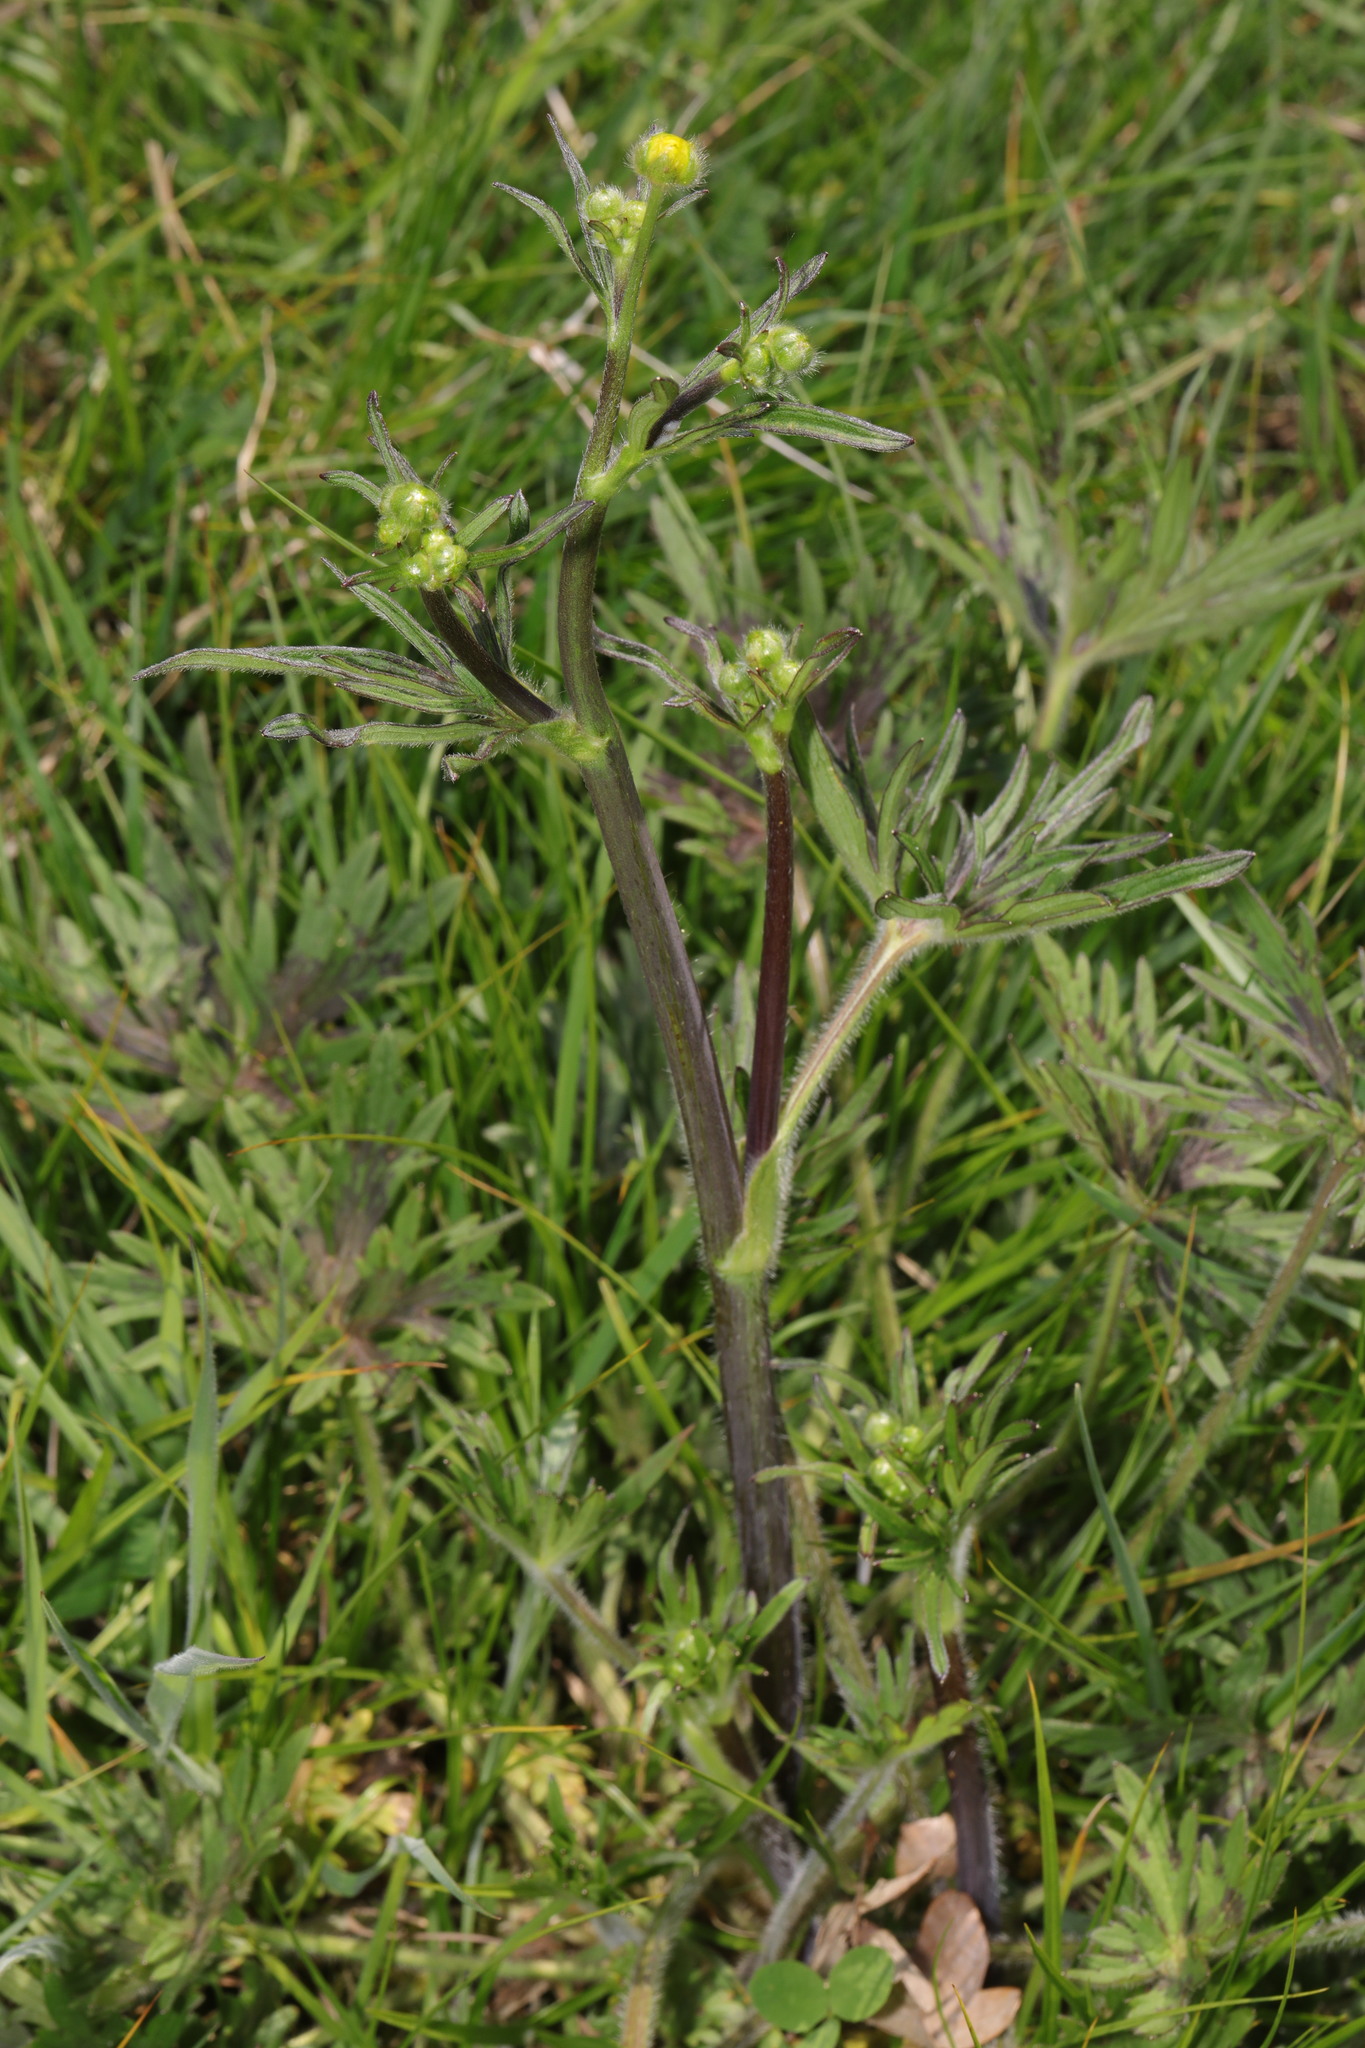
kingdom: Plantae
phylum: Tracheophyta
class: Magnoliopsida
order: Ranunculales
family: Ranunculaceae
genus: Ranunculus
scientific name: Ranunculus acris
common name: Meadow buttercup
